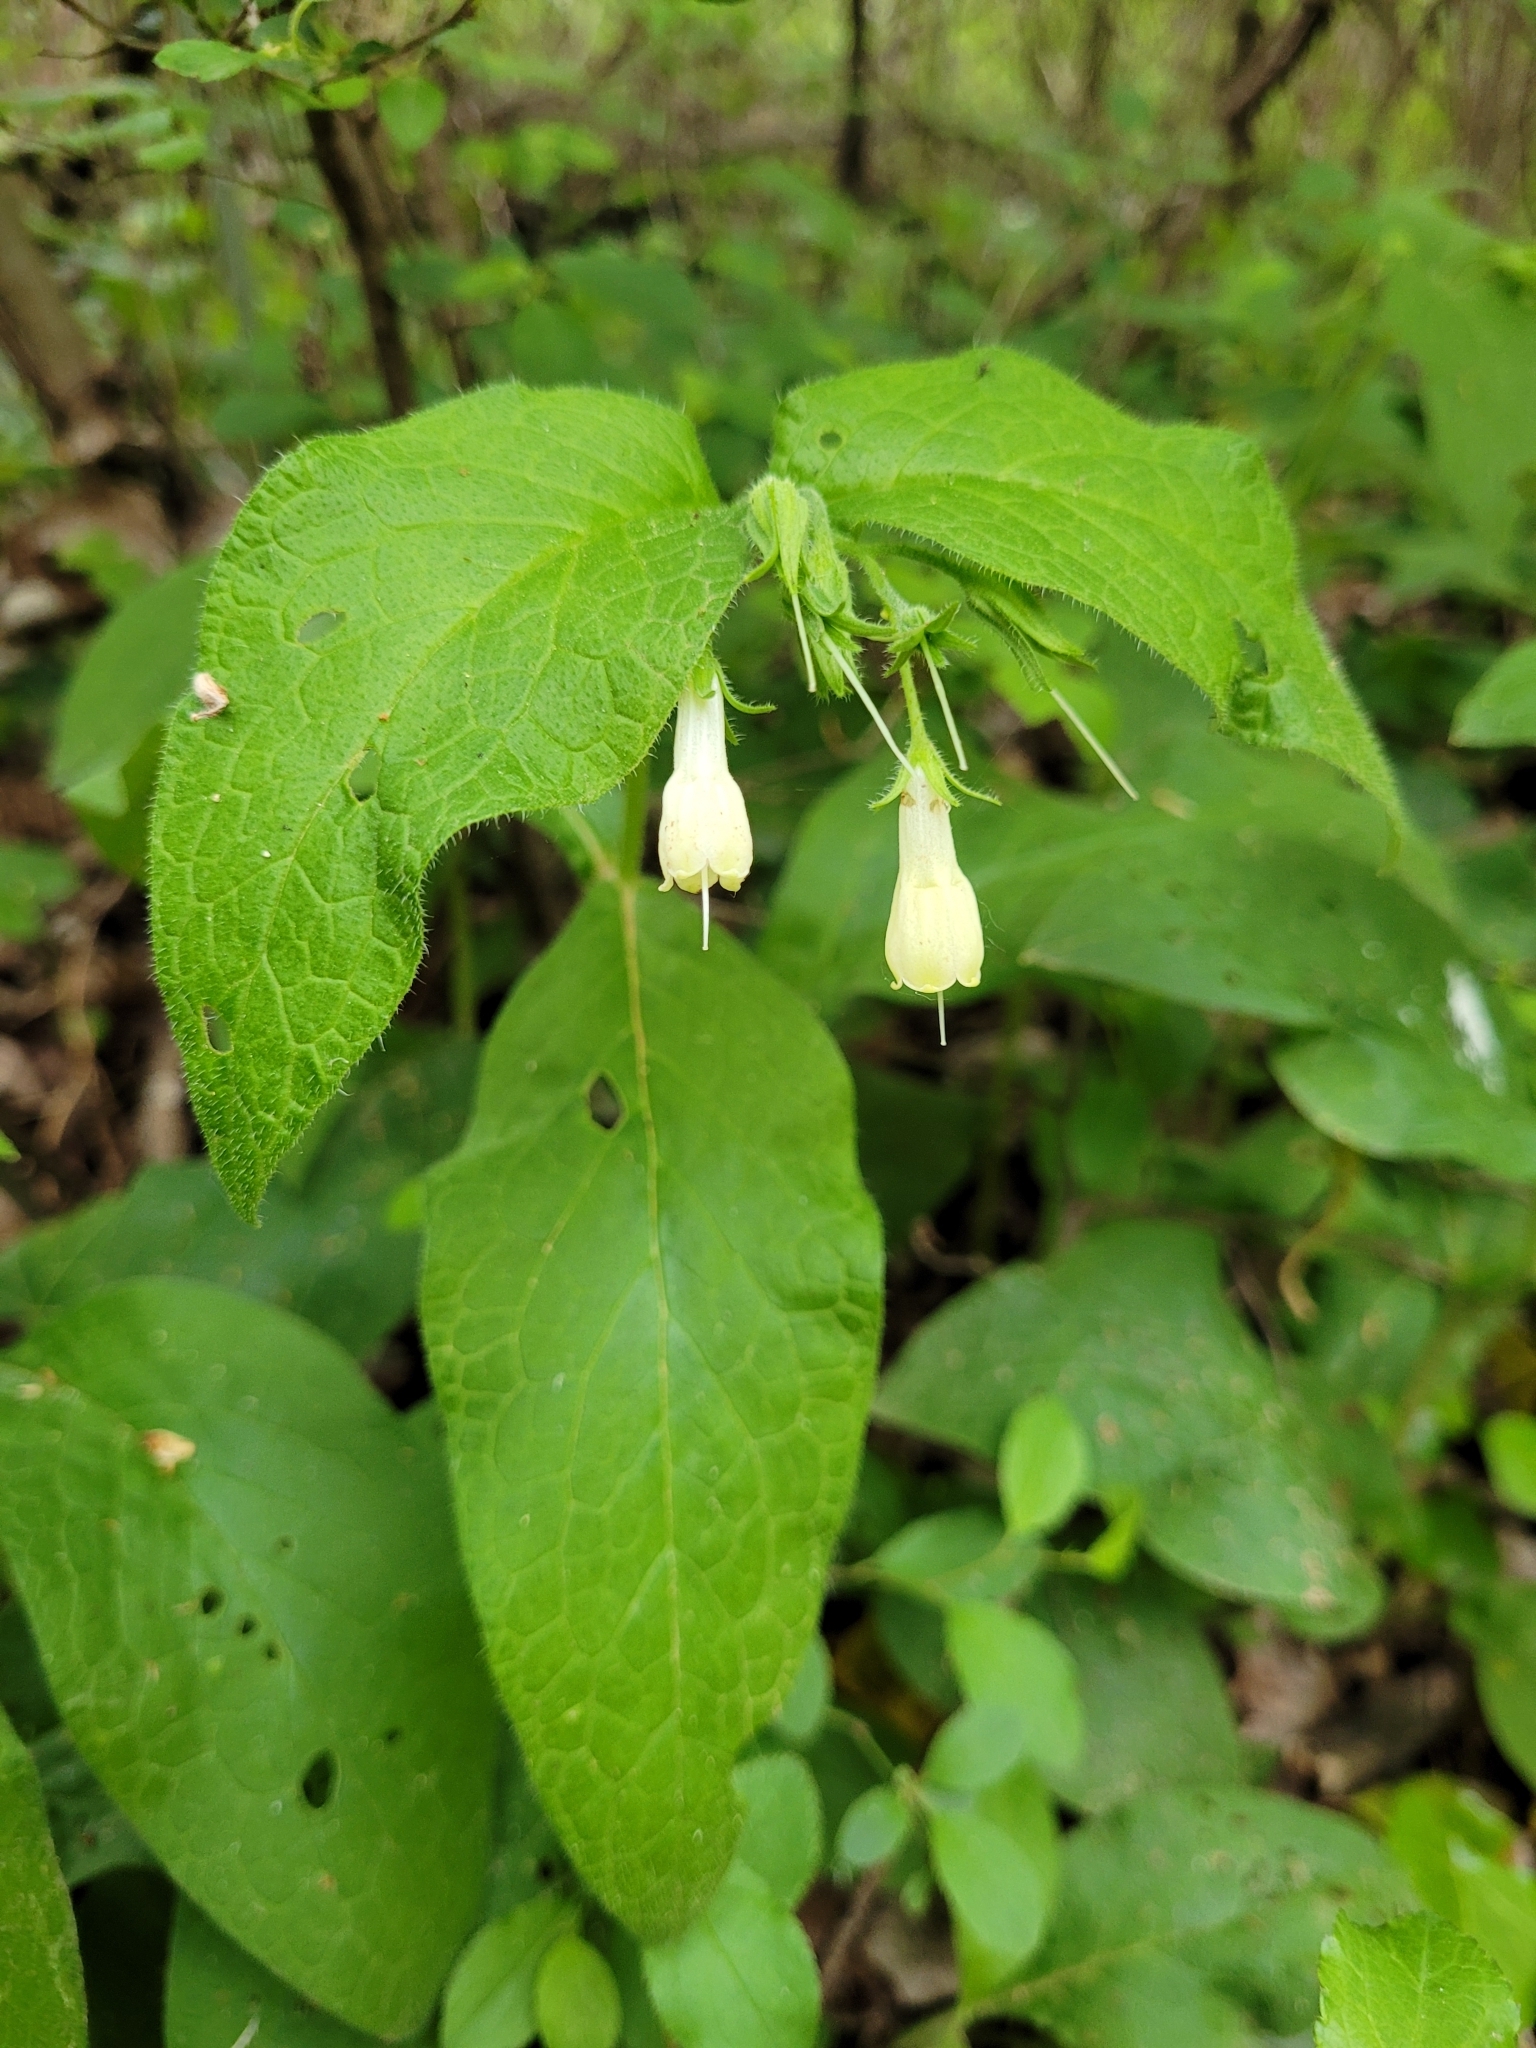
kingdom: Plantae
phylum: Tracheophyta
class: Magnoliopsida
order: Boraginales
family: Boraginaceae
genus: Symphytum
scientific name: Symphytum tuberosum
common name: Tuberous comfrey
